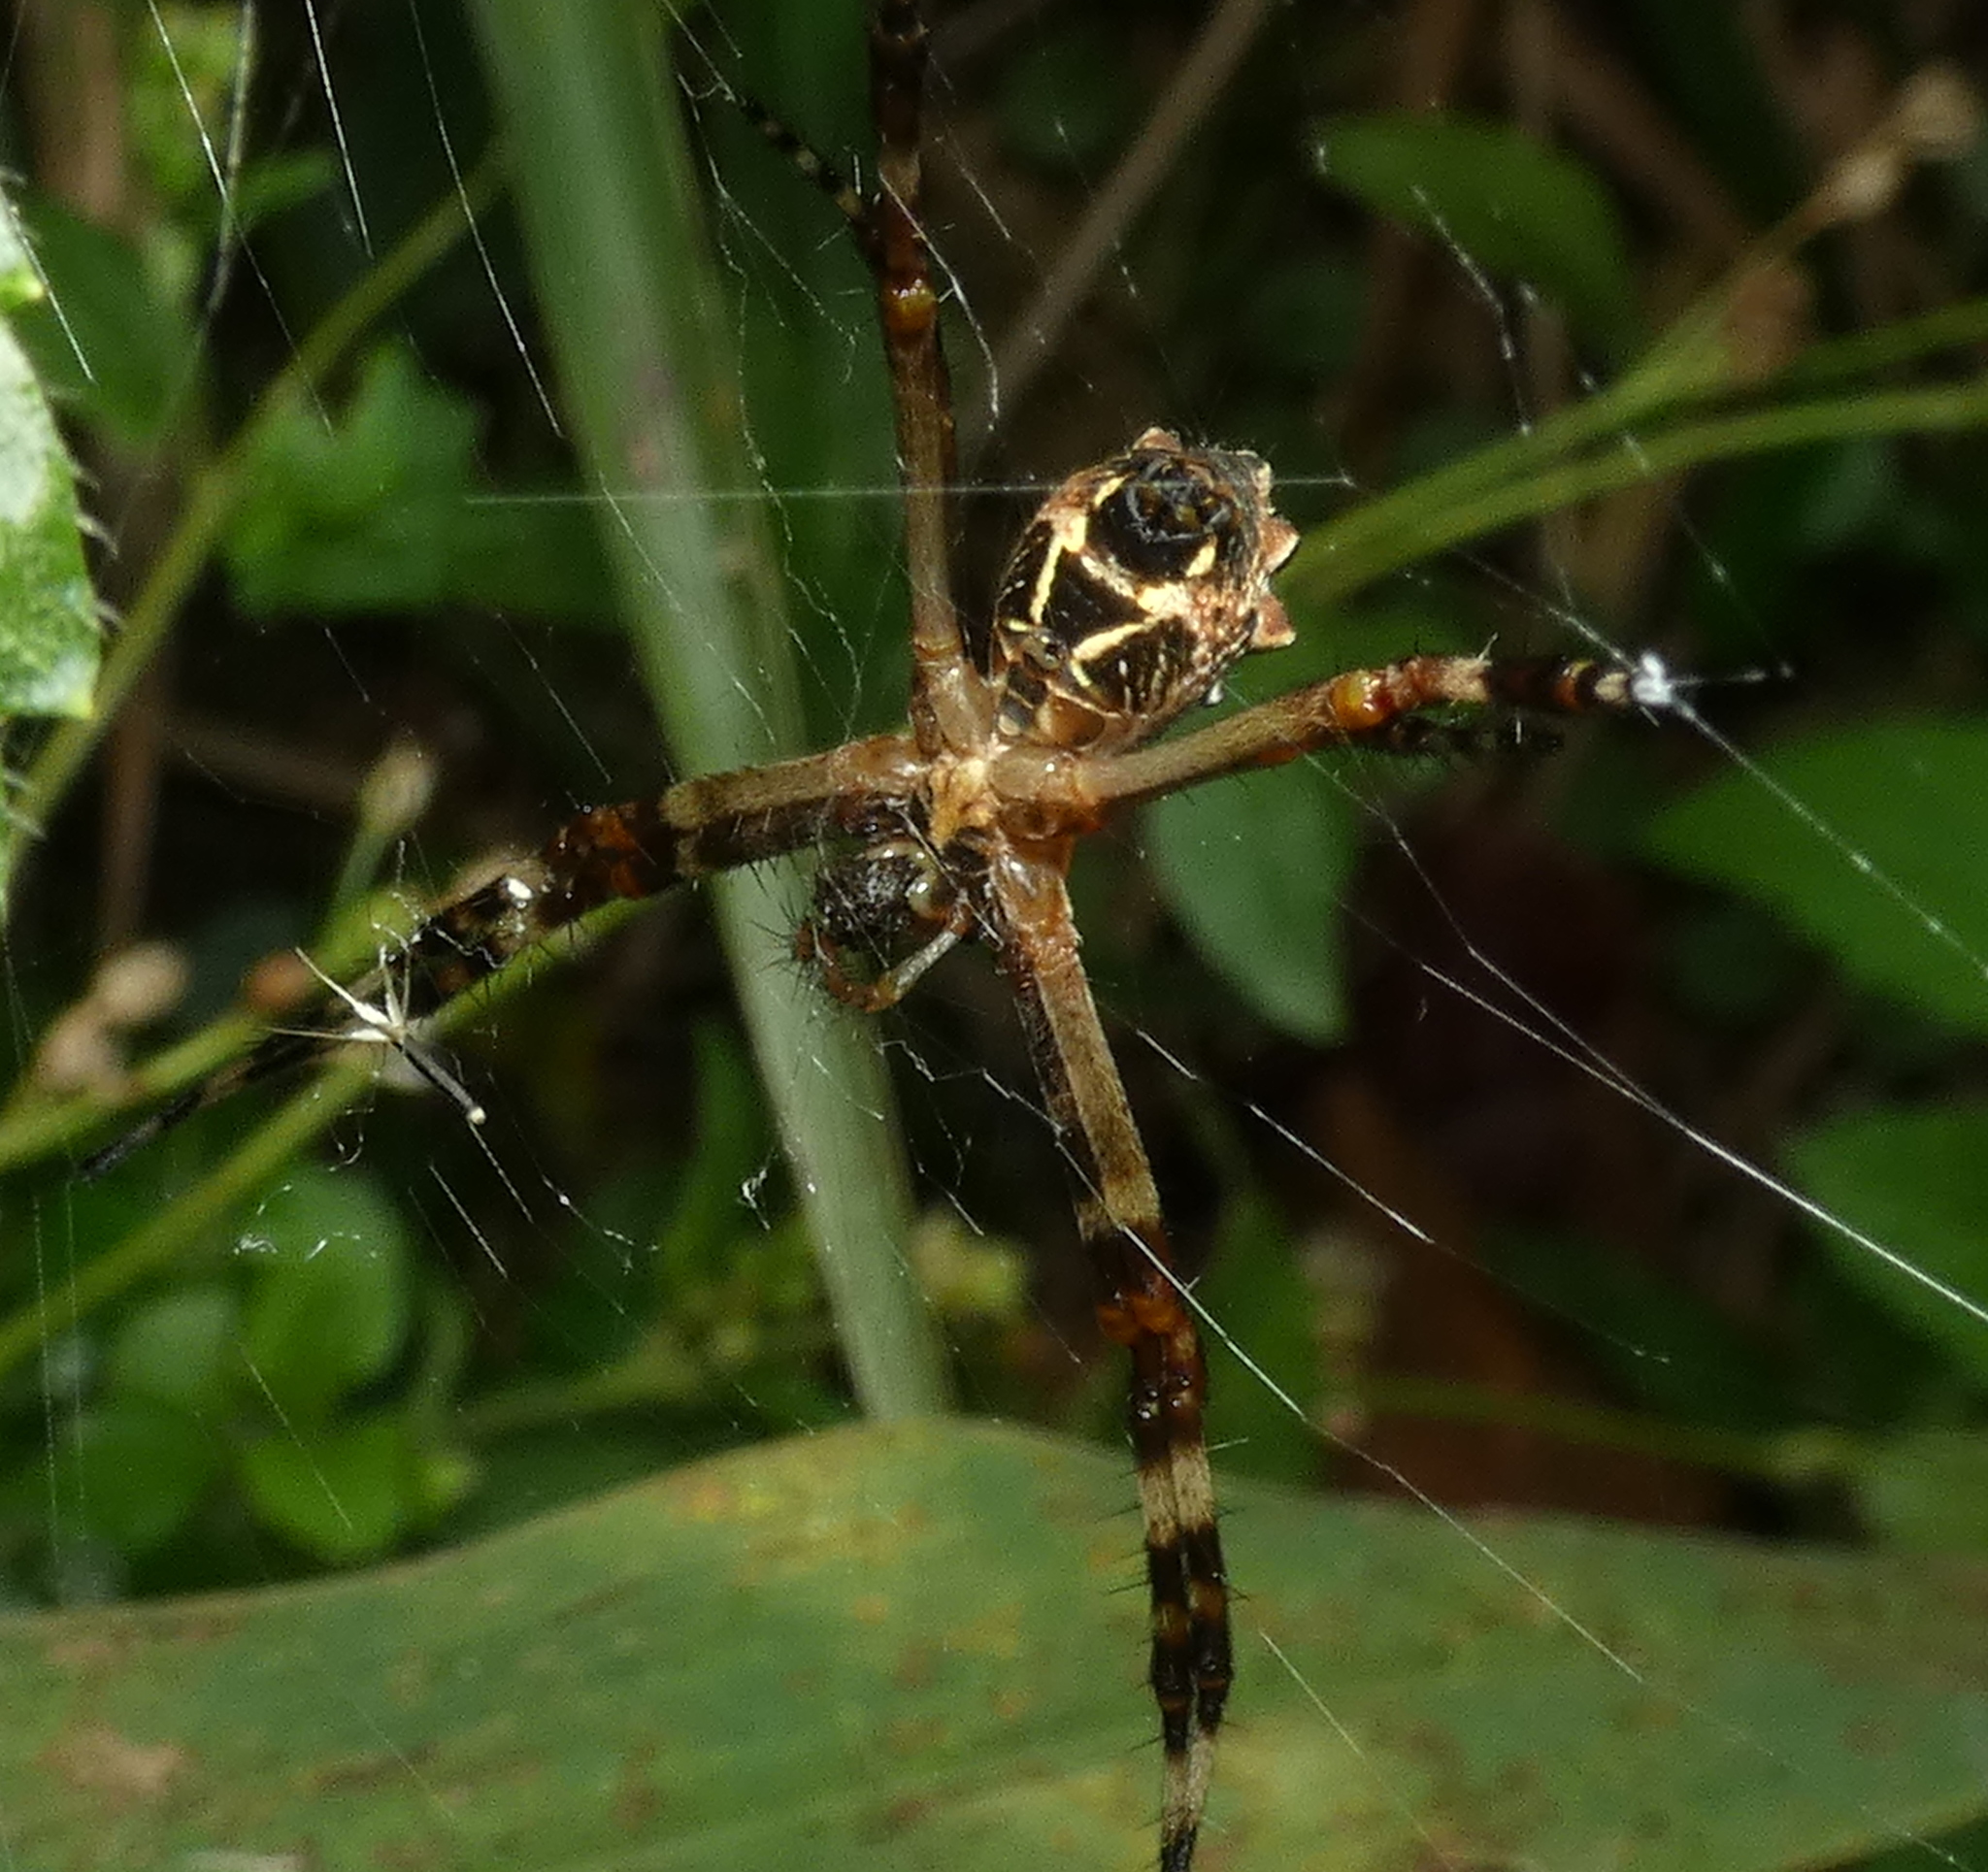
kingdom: Animalia
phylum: Arthropoda
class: Arachnida
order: Araneae
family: Araneidae
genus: Argiope
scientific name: Argiope argentata
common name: Orb weavers
